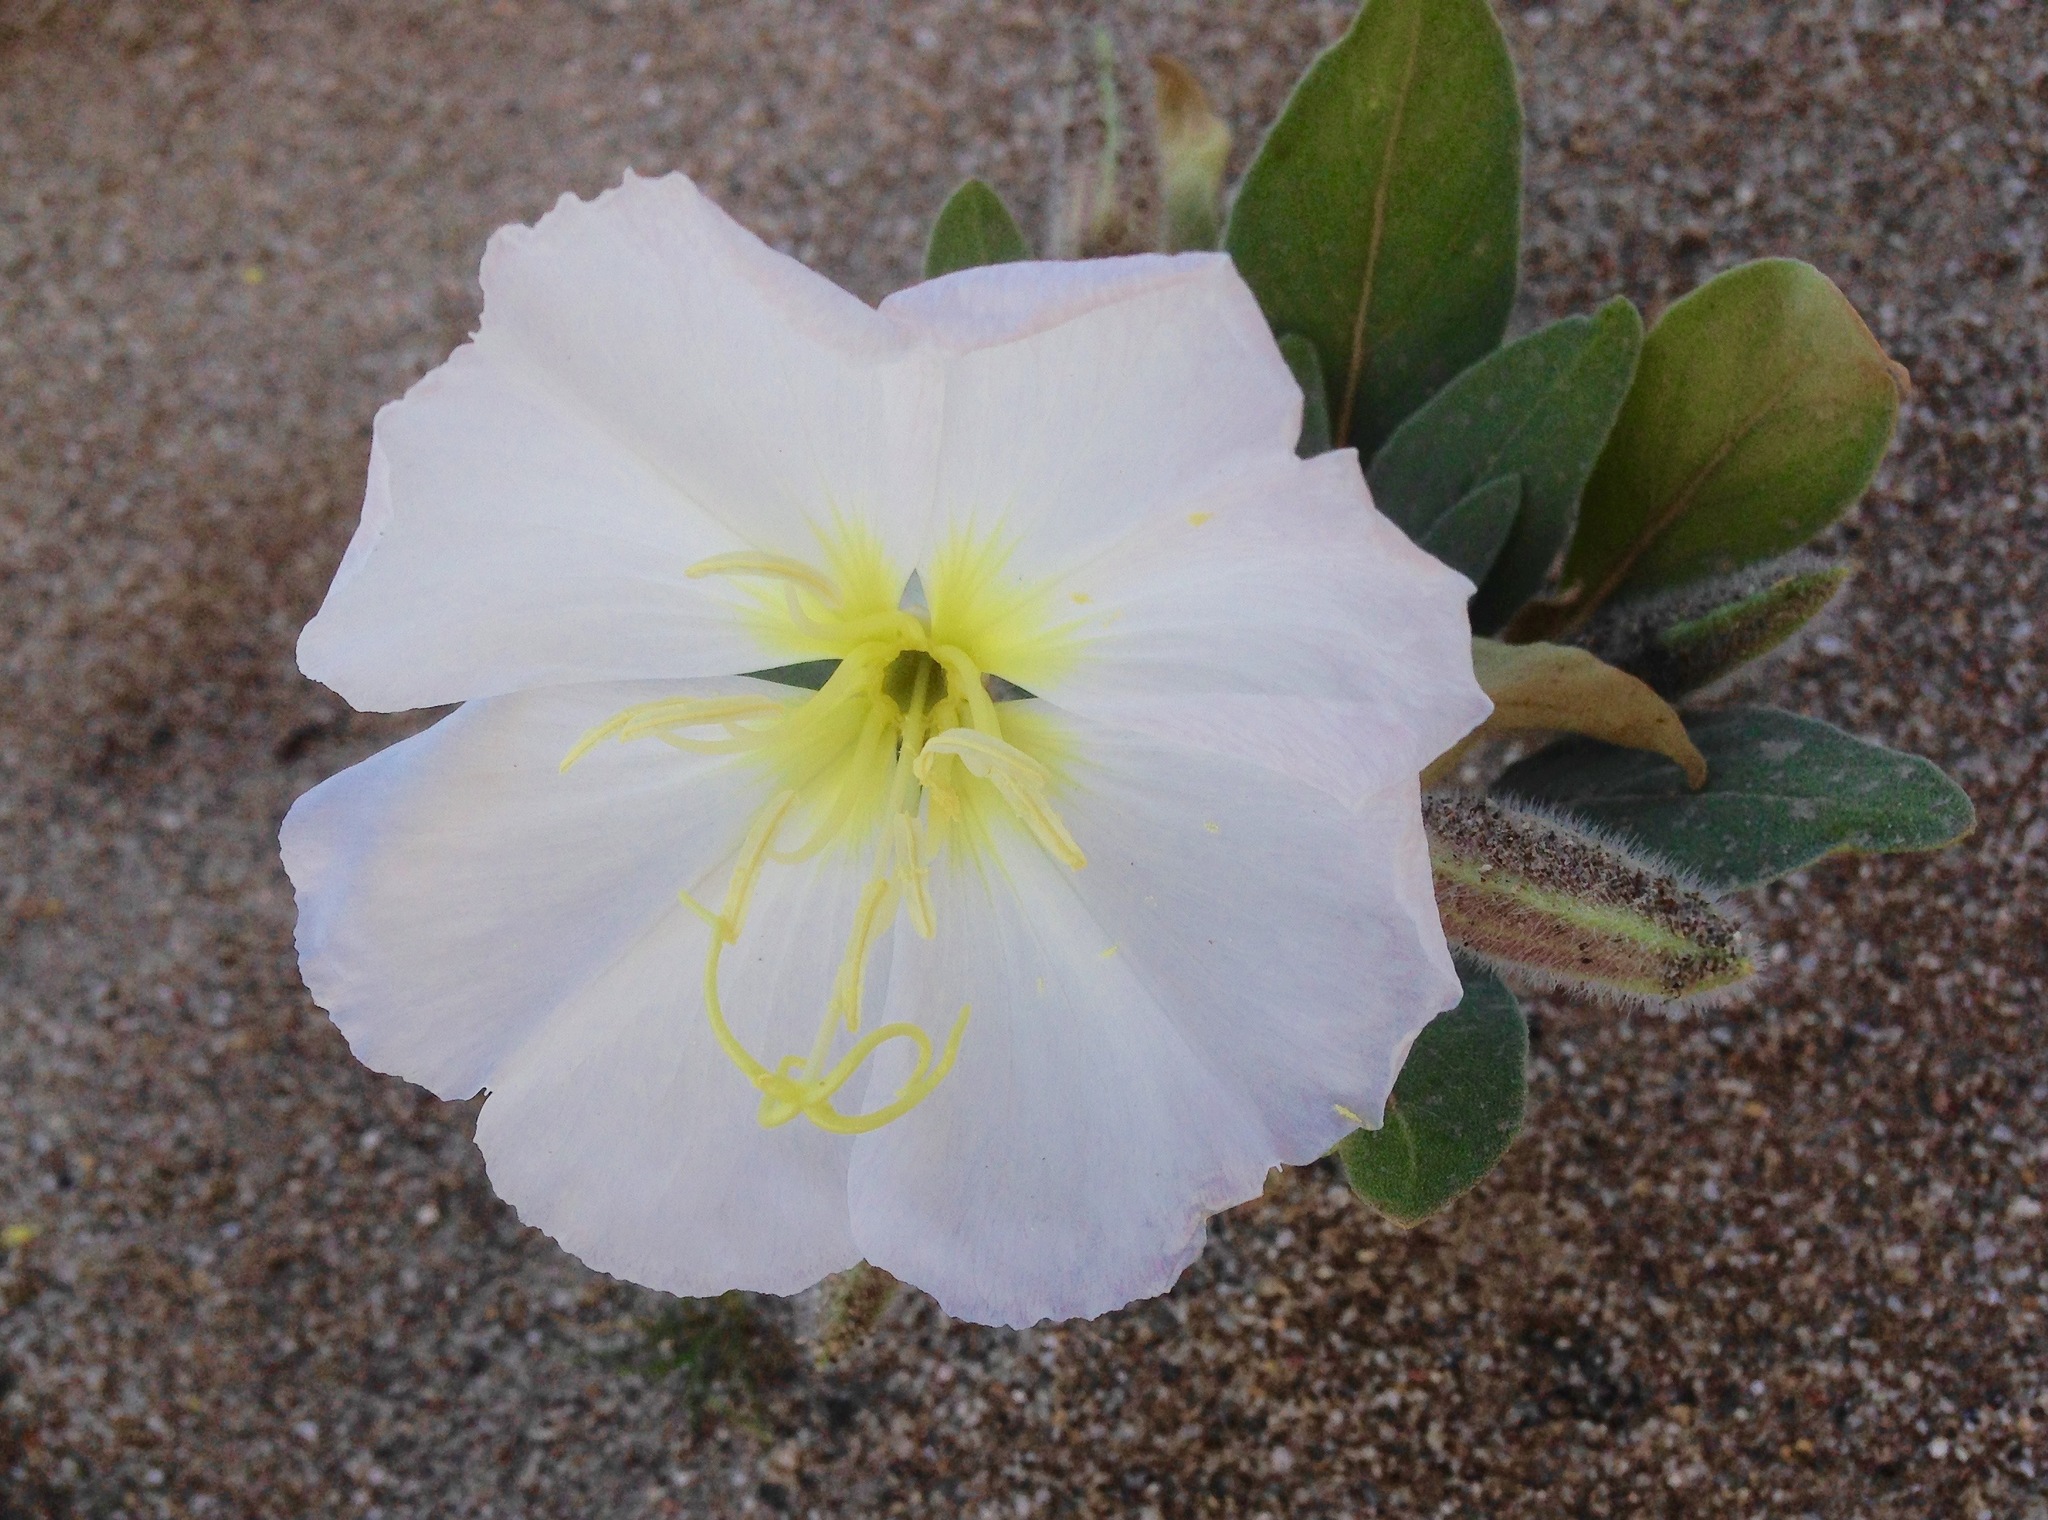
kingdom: Plantae
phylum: Tracheophyta
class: Magnoliopsida
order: Myrtales
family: Onagraceae
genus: Oenothera
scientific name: Oenothera deltoides
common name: Basket evening-primrose
